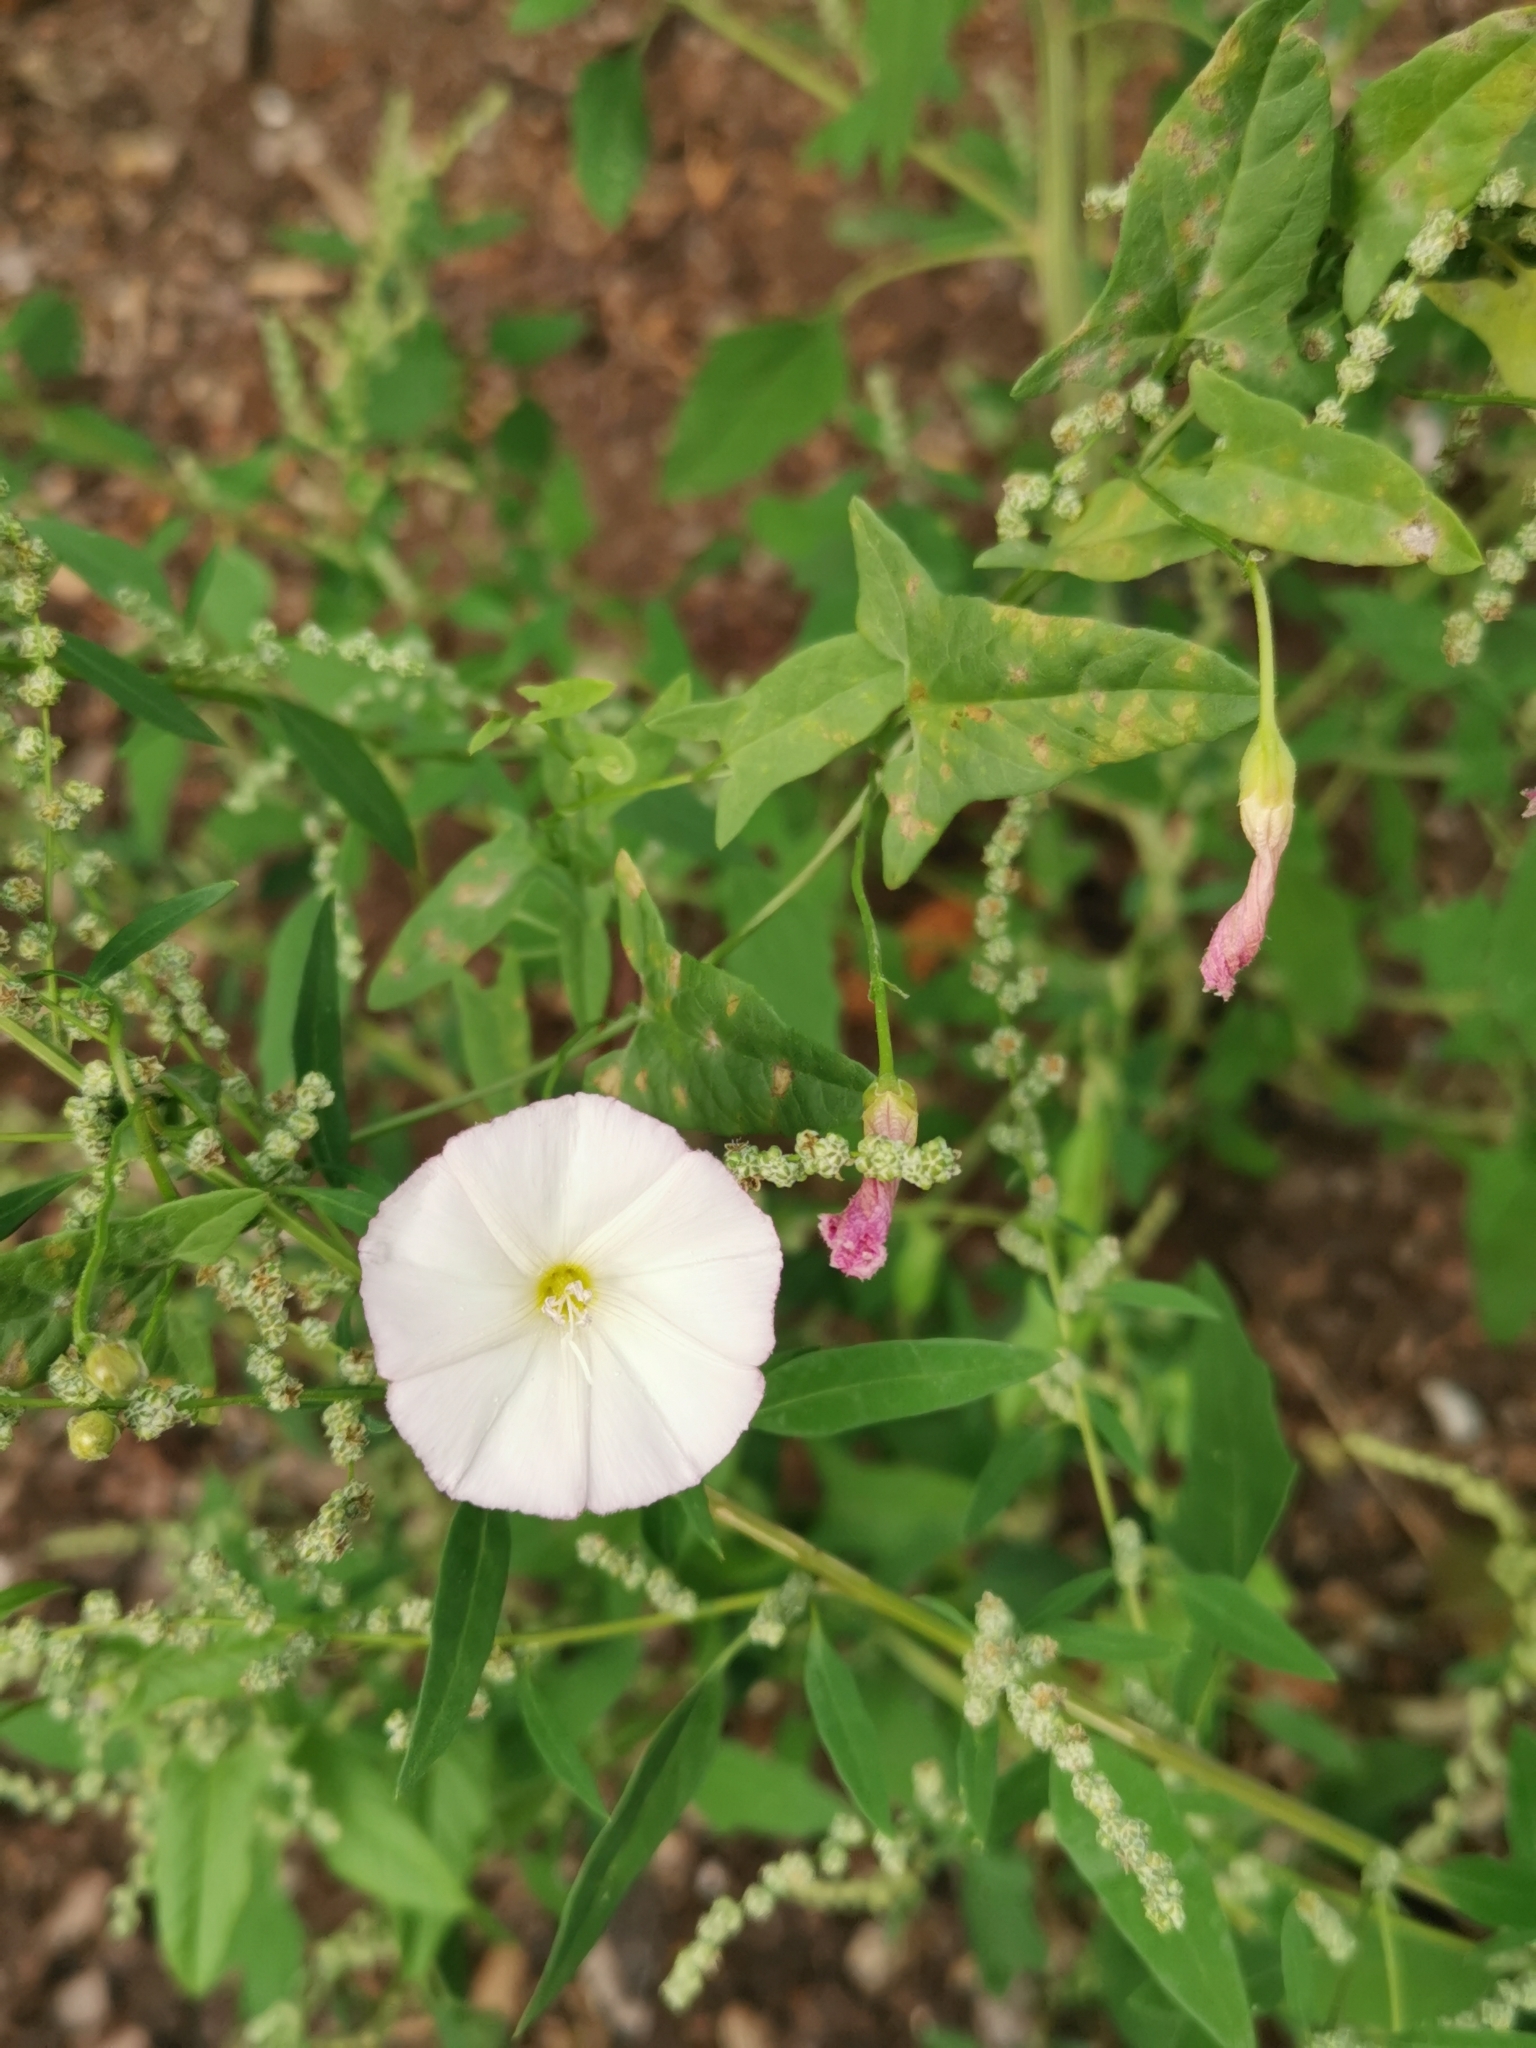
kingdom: Plantae
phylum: Tracheophyta
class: Magnoliopsida
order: Solanales
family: Convolvulaceae
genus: Convolvulus
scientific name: Convolvulus arvensis
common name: Field bindweed
